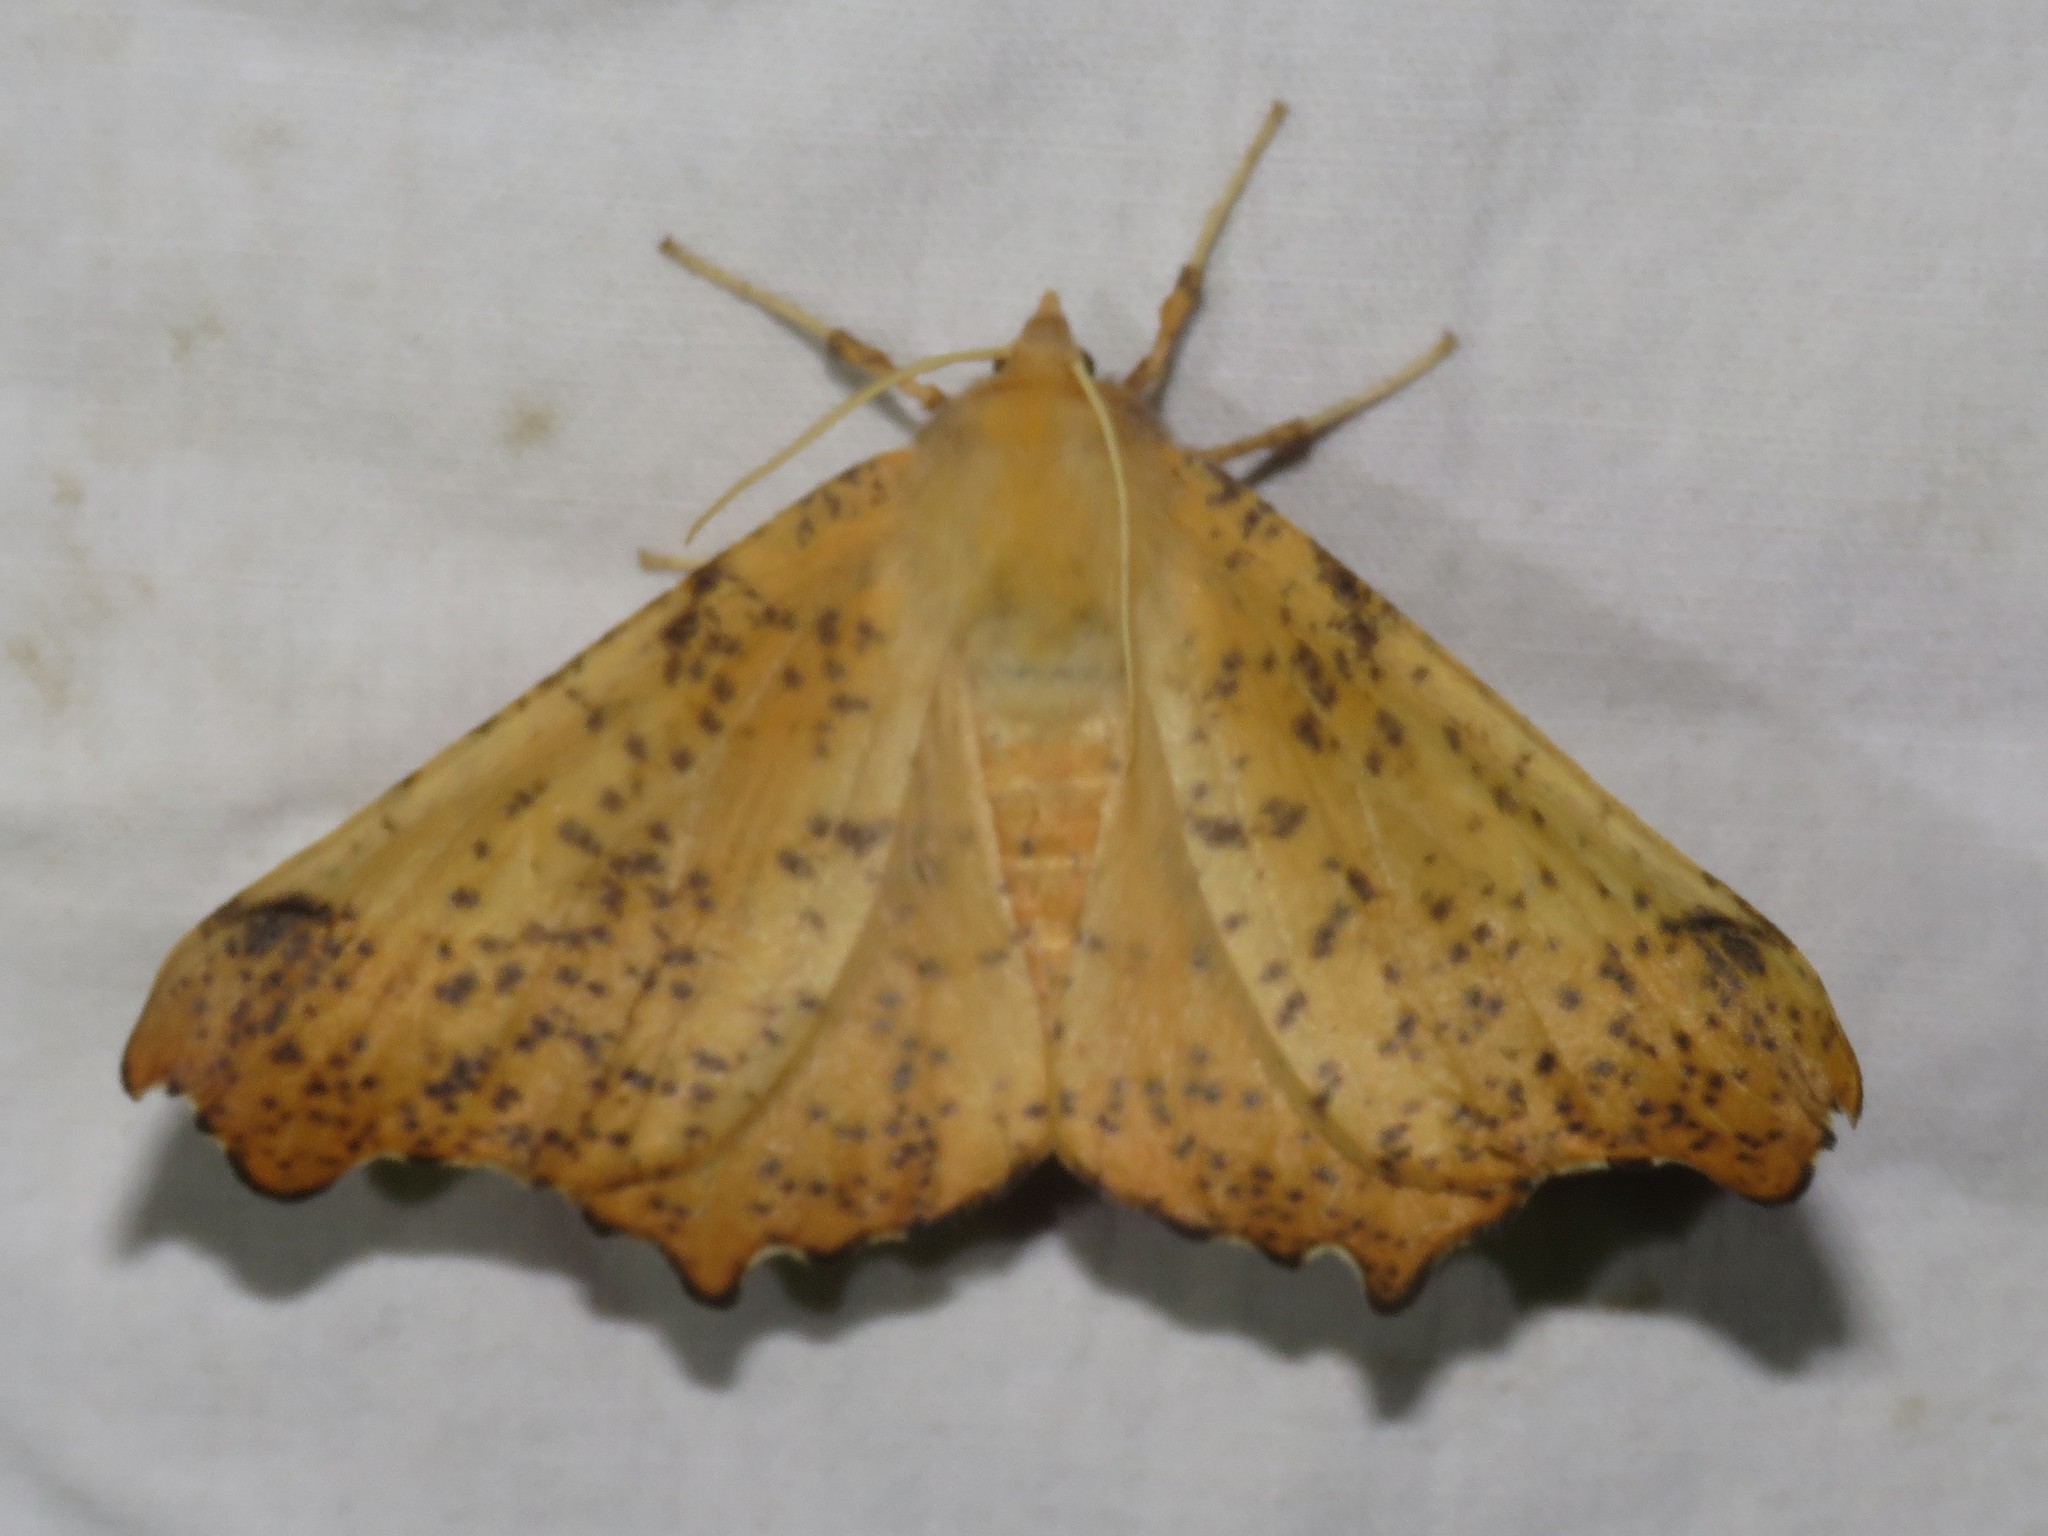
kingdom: Animalia
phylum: Arthropoda
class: Insecta
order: Lepidoptera
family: Geometridae
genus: Ennomos
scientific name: Ennomos magnaria
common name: Maple spanworm
